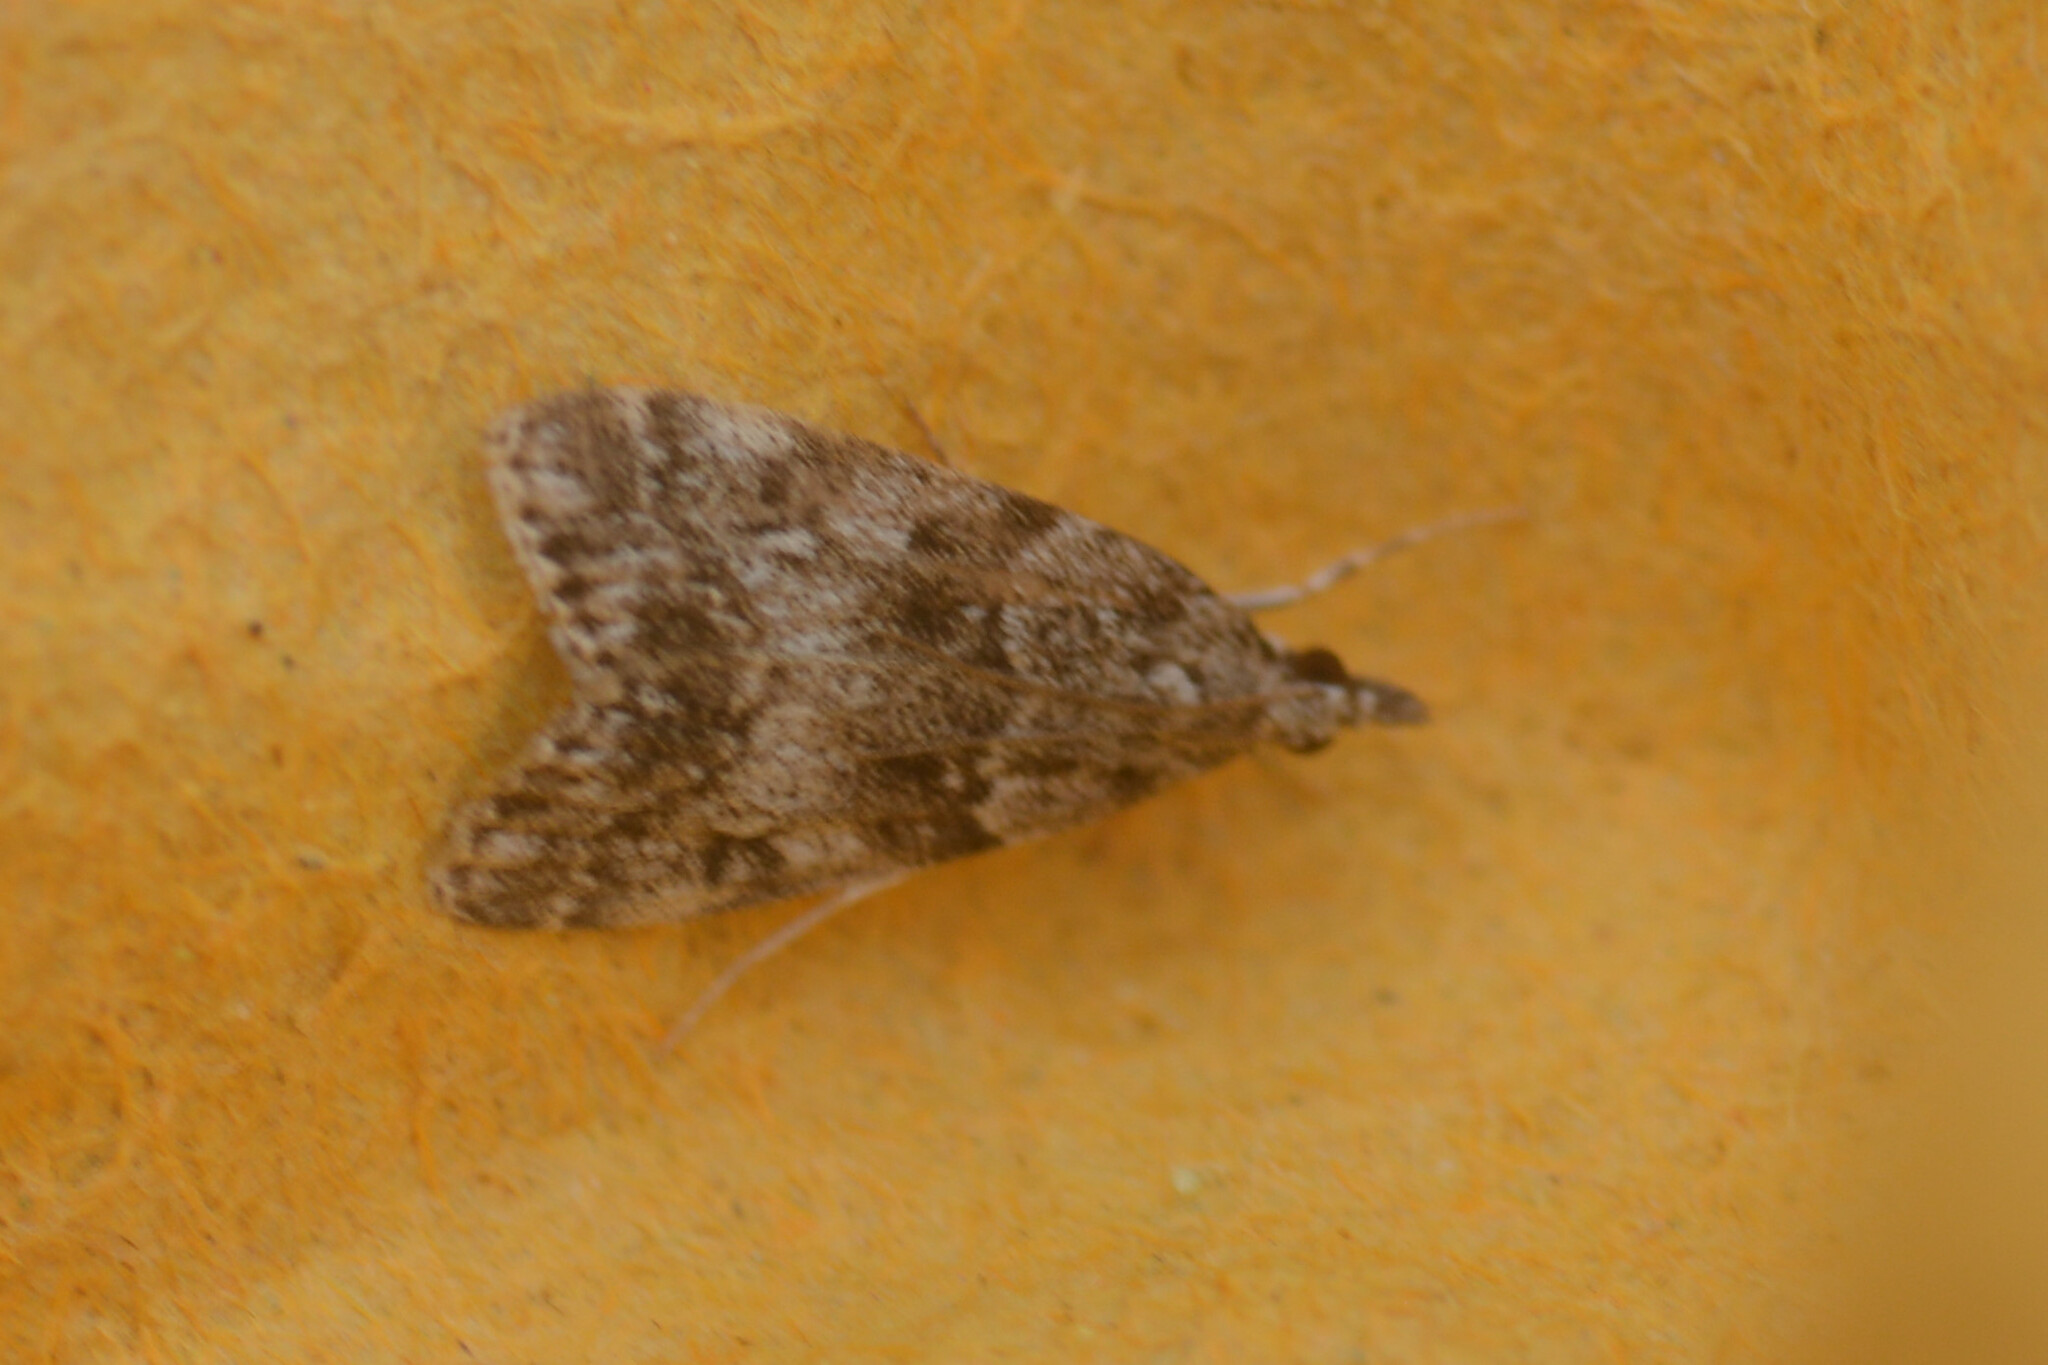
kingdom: Animalia
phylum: Arthropoda
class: Insecta
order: Lepidoptera
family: Crambidae
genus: Eudonia
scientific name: Eudonia mercurella
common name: Small grey
